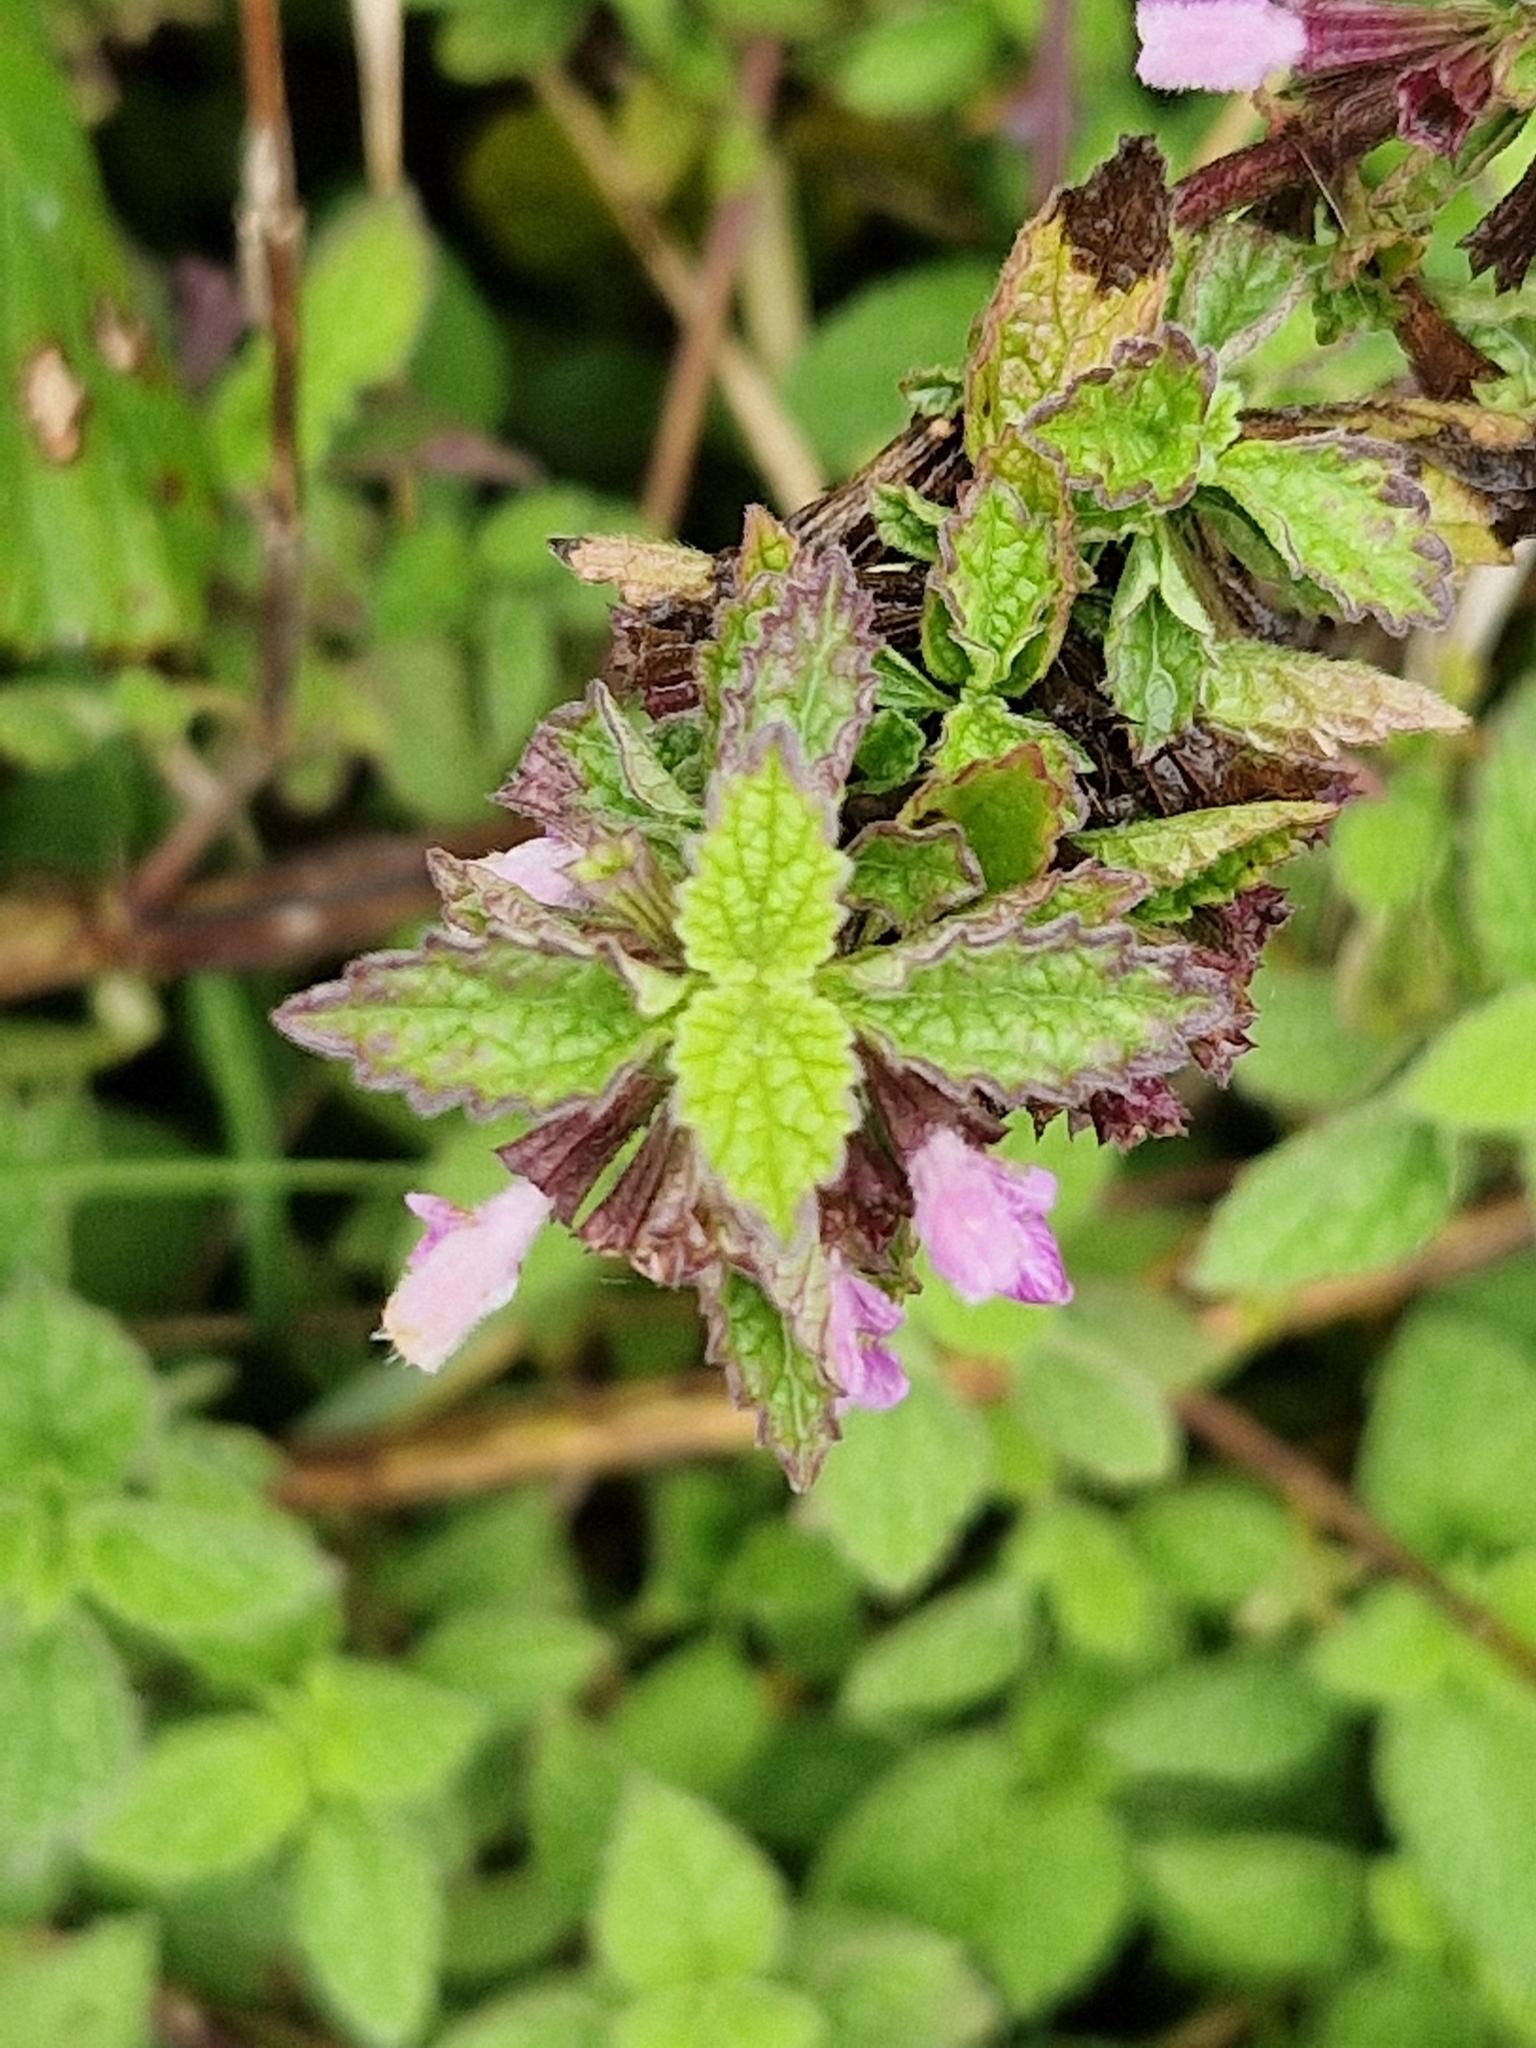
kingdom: Plantae
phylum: Tracheophyta
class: Magnoliopsida
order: Lamiales
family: Lamiaceae
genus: Ballota
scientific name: Ballota nigra
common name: Black horehound
